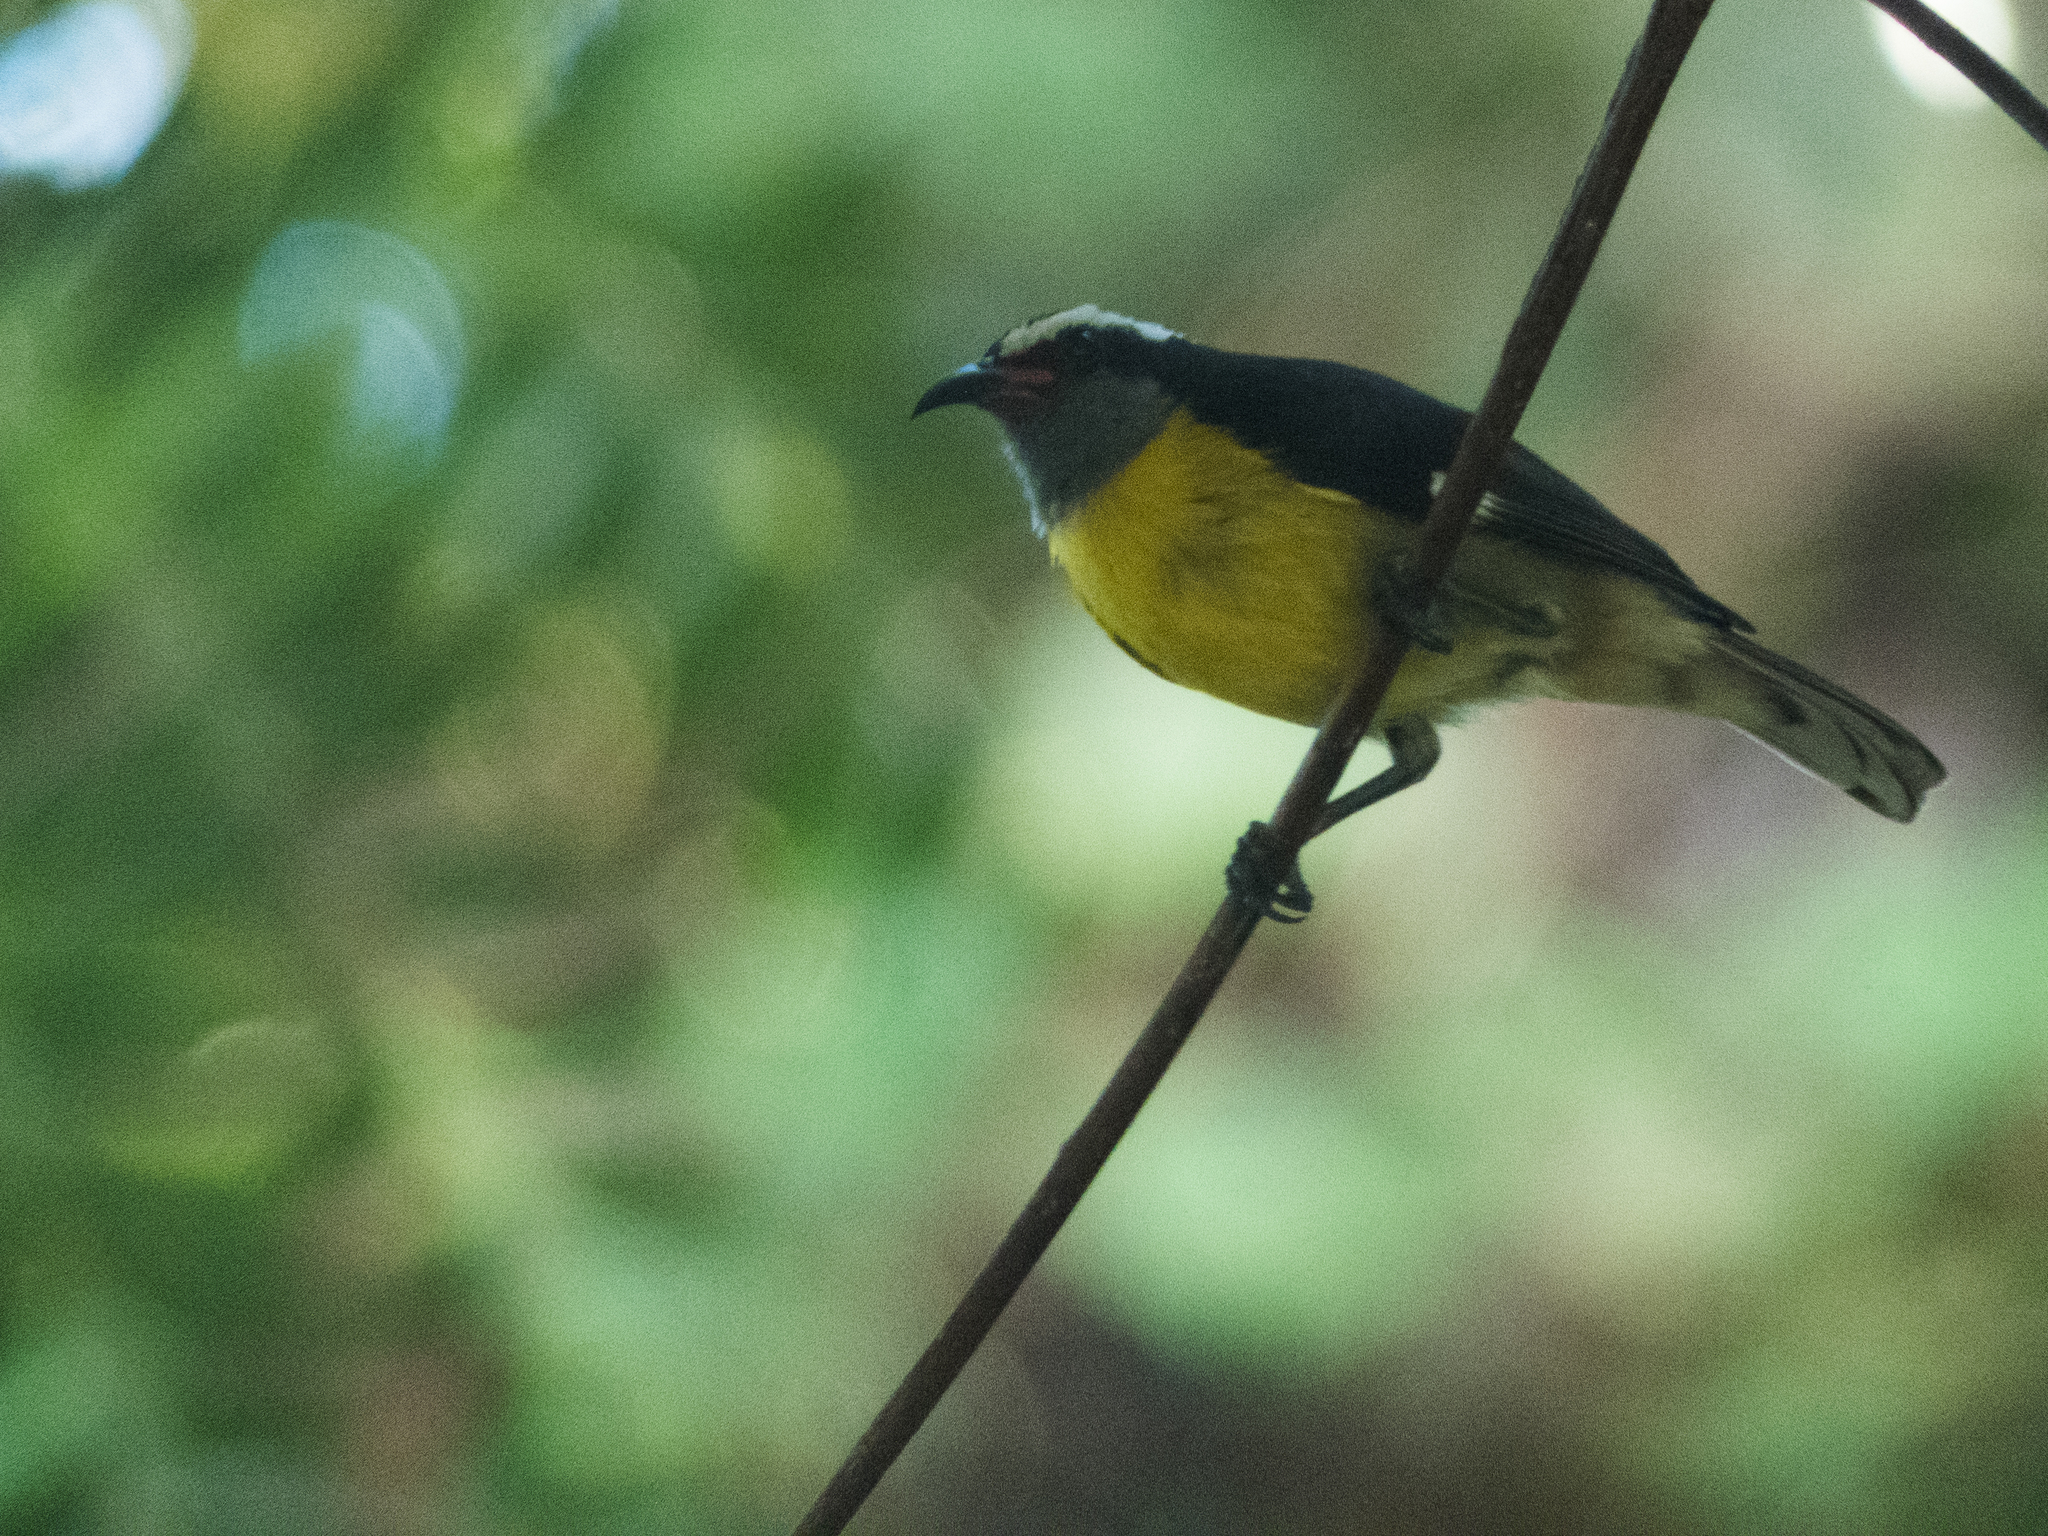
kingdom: Animalia
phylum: Chordata
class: Aves
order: Passeriformes
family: Thraupidae
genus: Coereba
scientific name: Coereba flaveola
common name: Bananaquit
